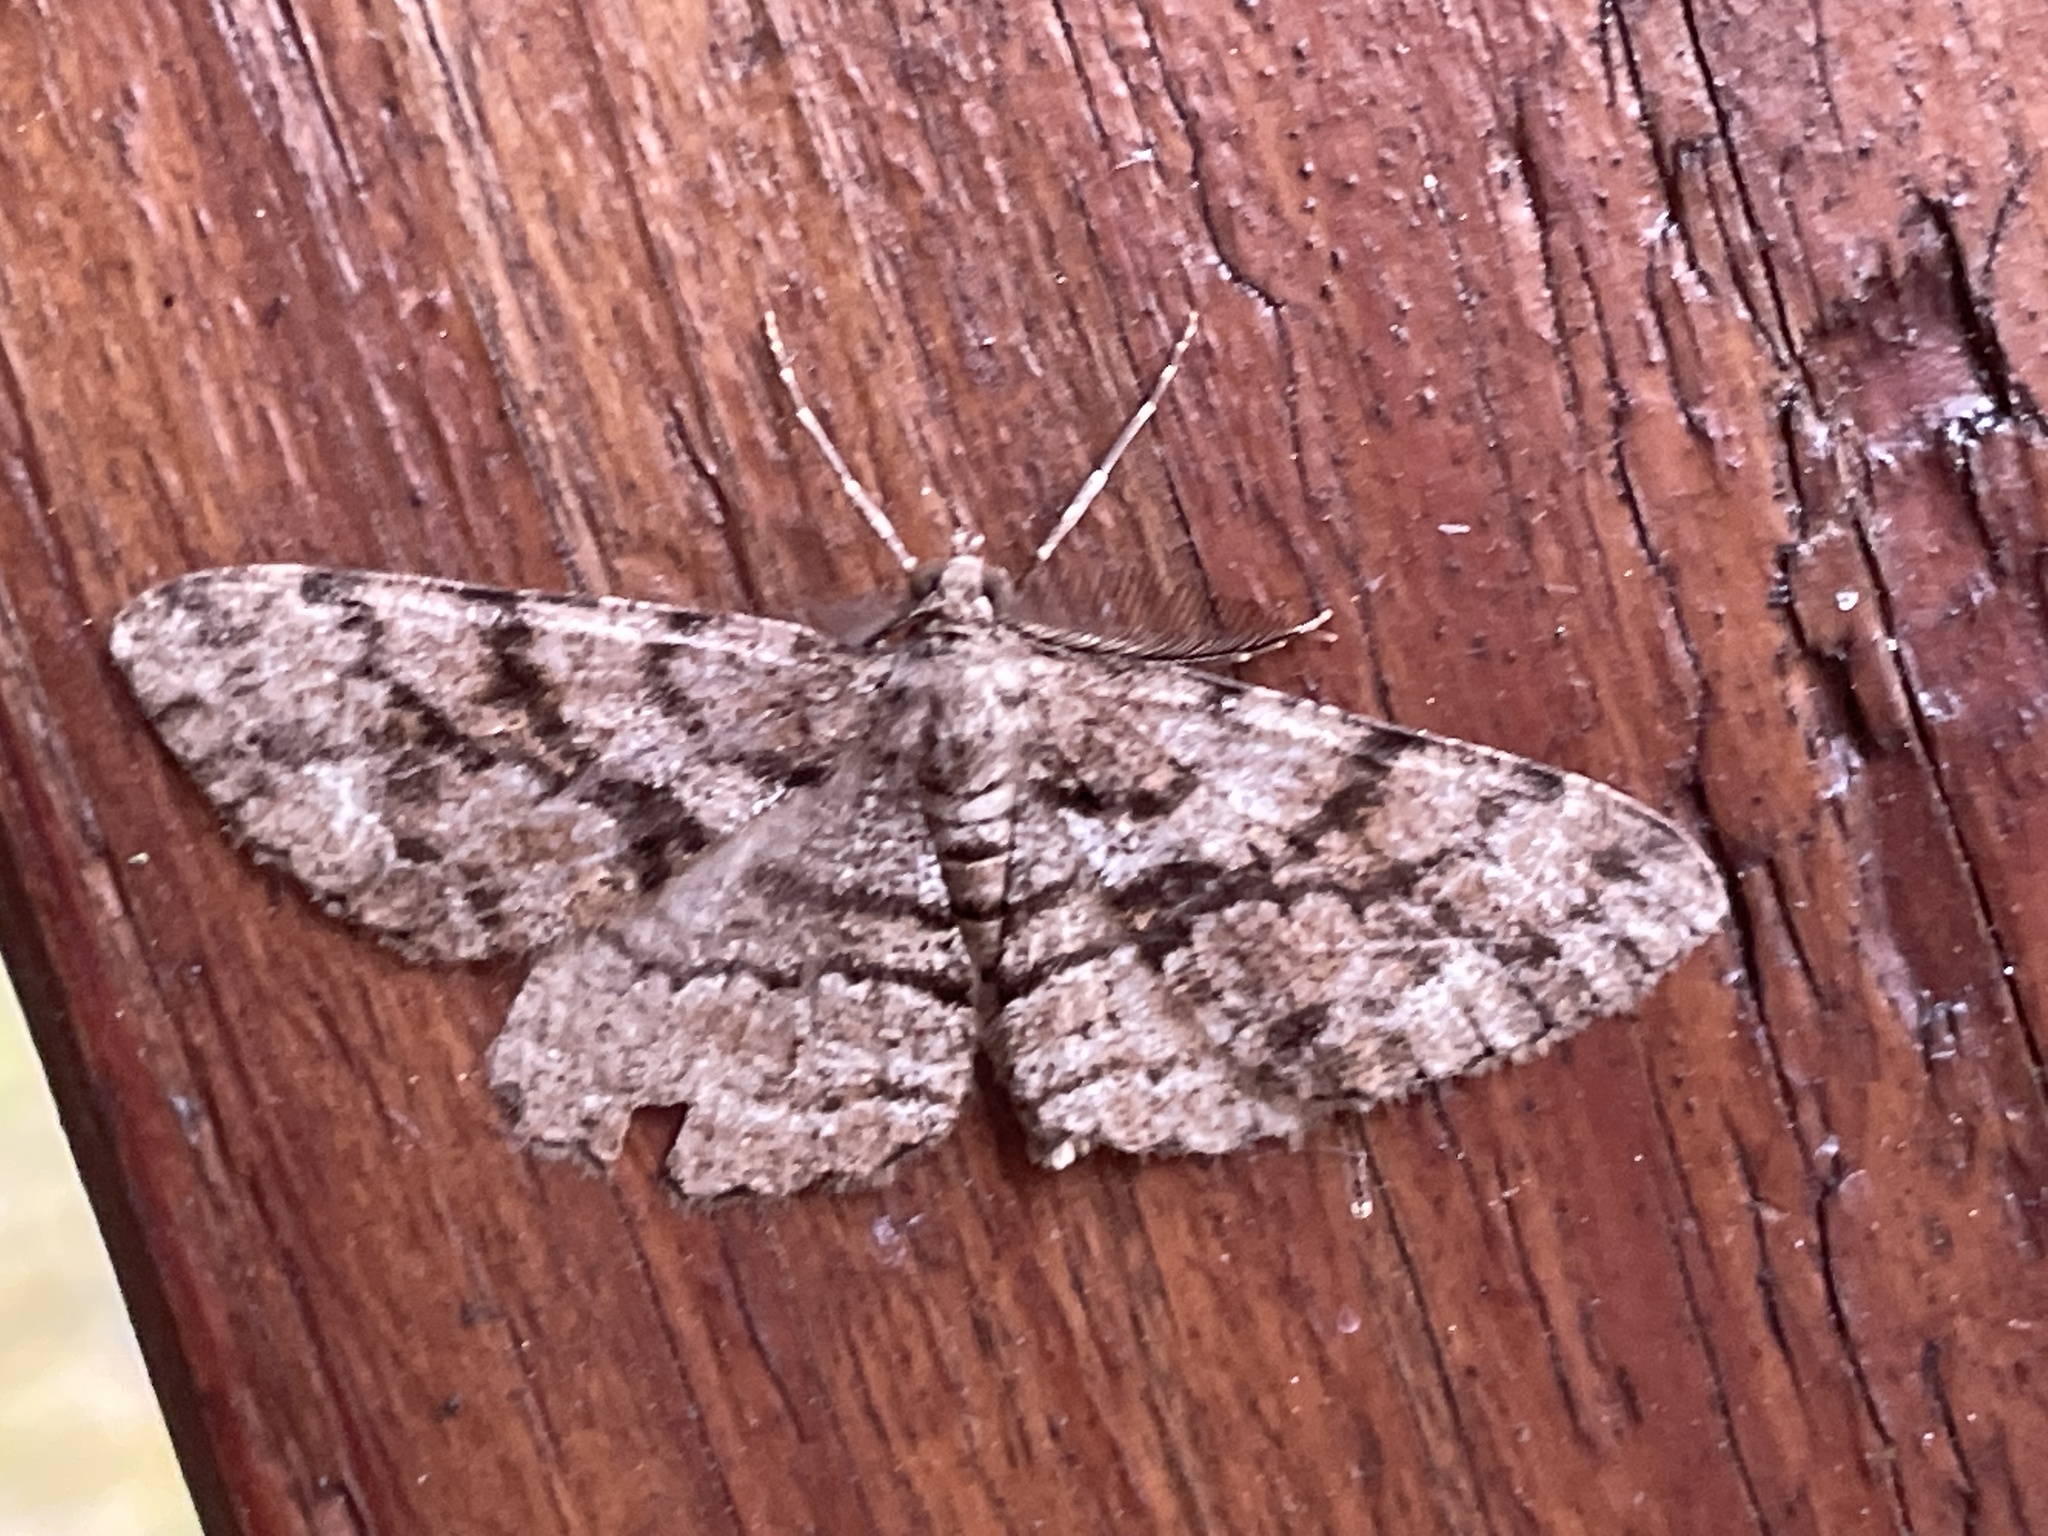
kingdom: Animalia
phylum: Arthropoda
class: Insecta
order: Lepidoptera
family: Geometridae
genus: Peribatodes
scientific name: Peribatodes secundaria
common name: Feathered beauty
